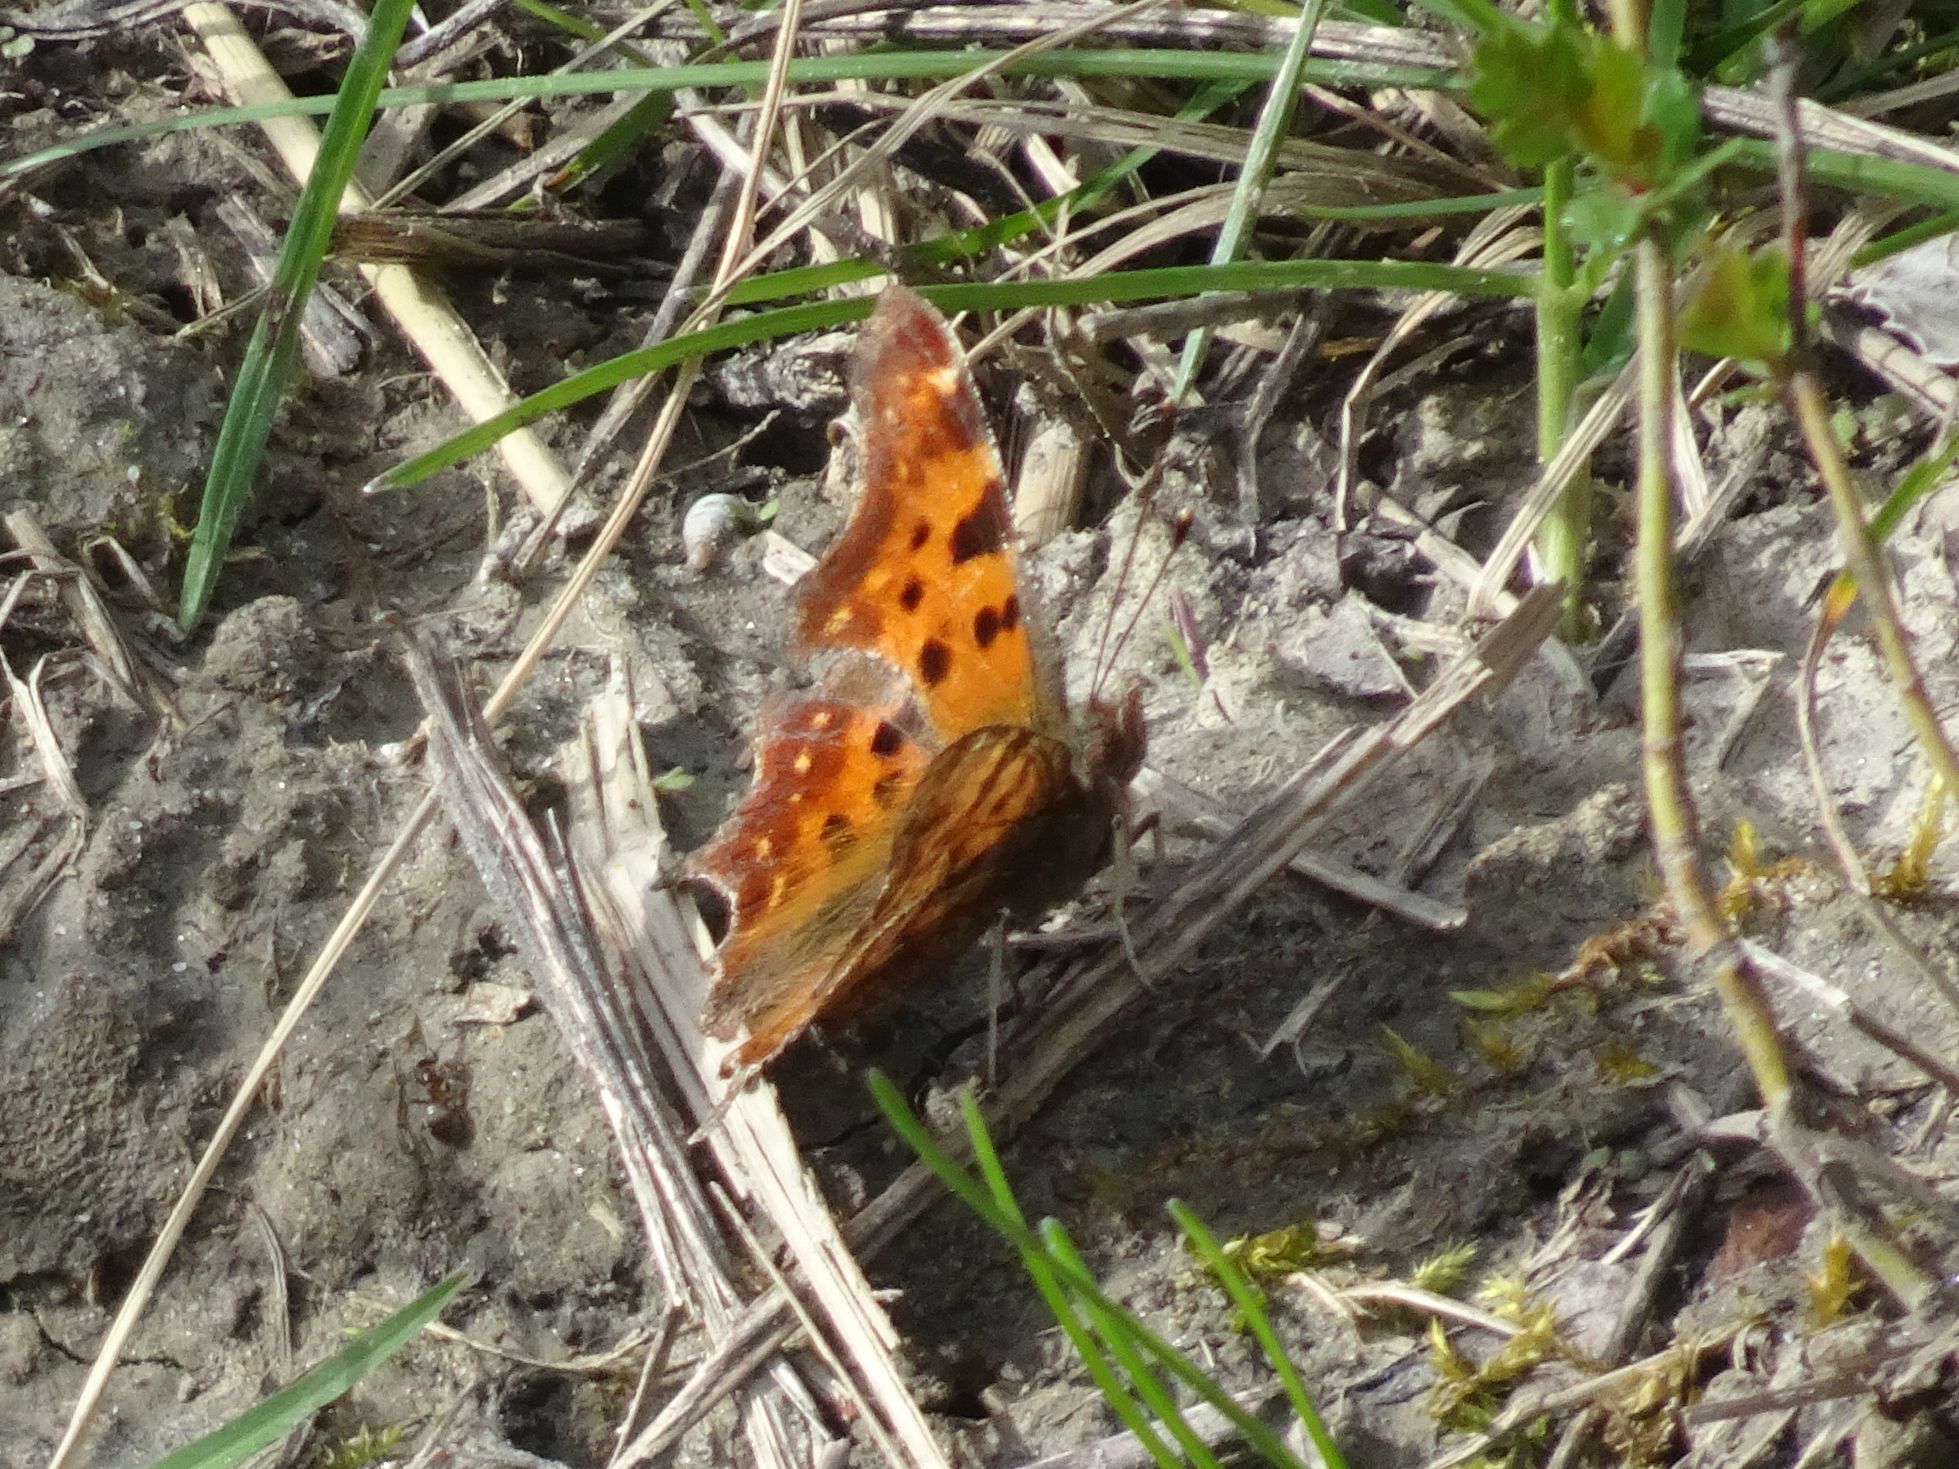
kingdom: Animalia
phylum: Arthropoda
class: Insecta
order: Lepidoptera
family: Nymphalidae
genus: Polygonia
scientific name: Polygonia c-album
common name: Comma
